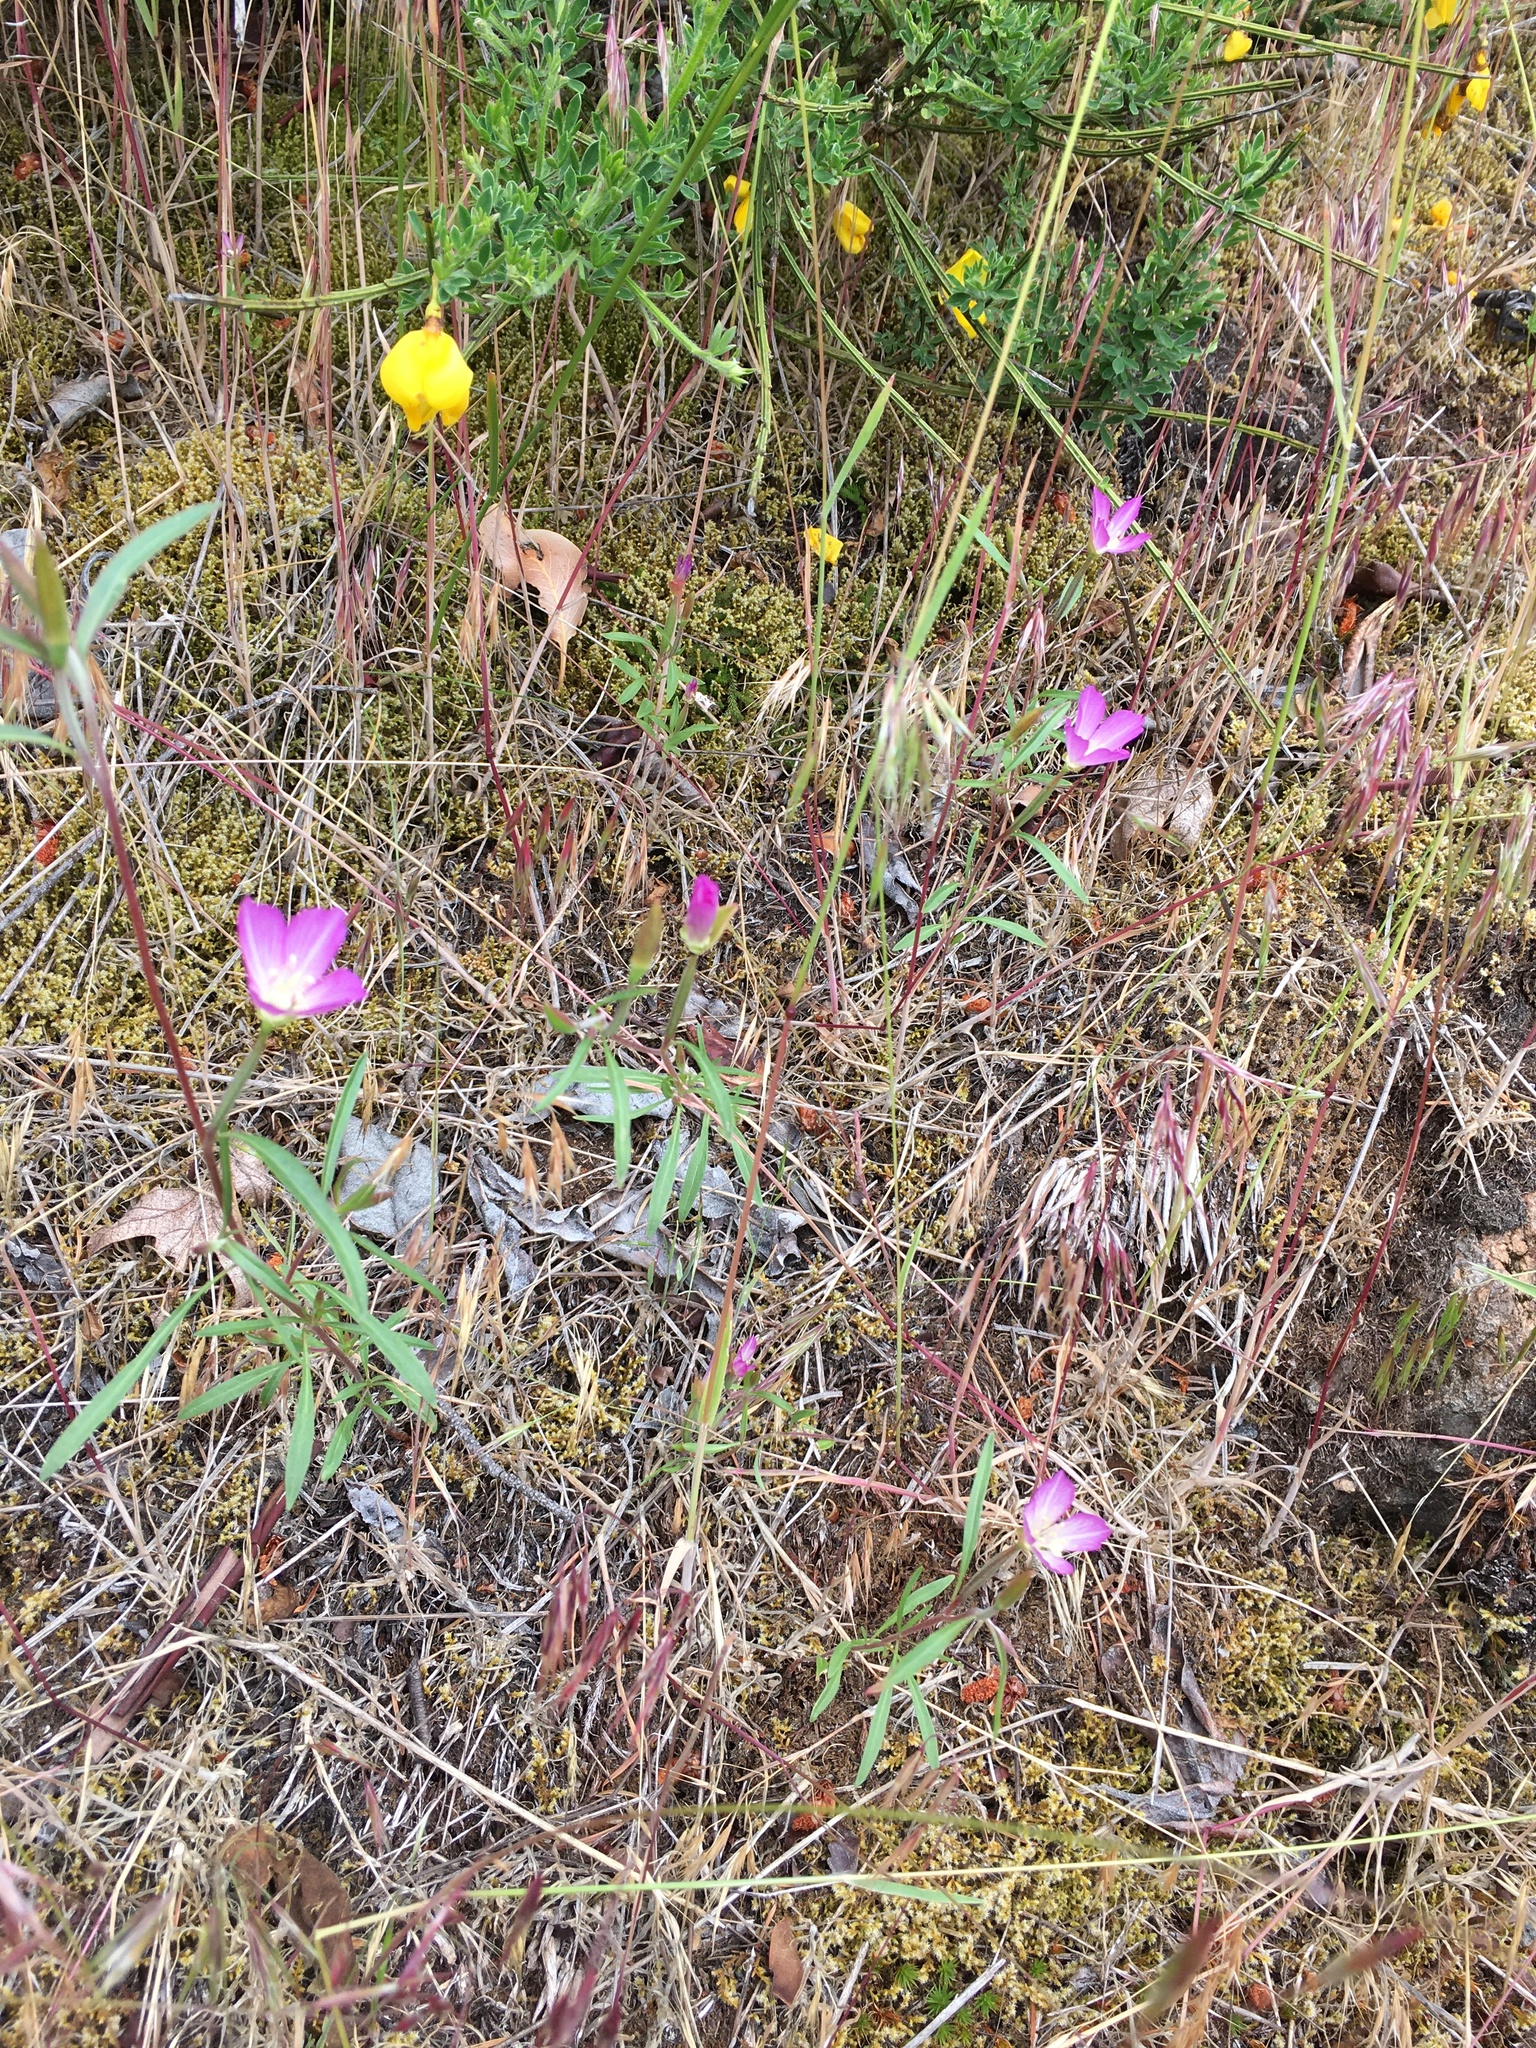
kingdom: Plantae
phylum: Tracheophyta
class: Magnoliopsida
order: Myrtales
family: Onagraceae
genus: Clarkia
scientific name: Clarkia amoena
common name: Godetia
